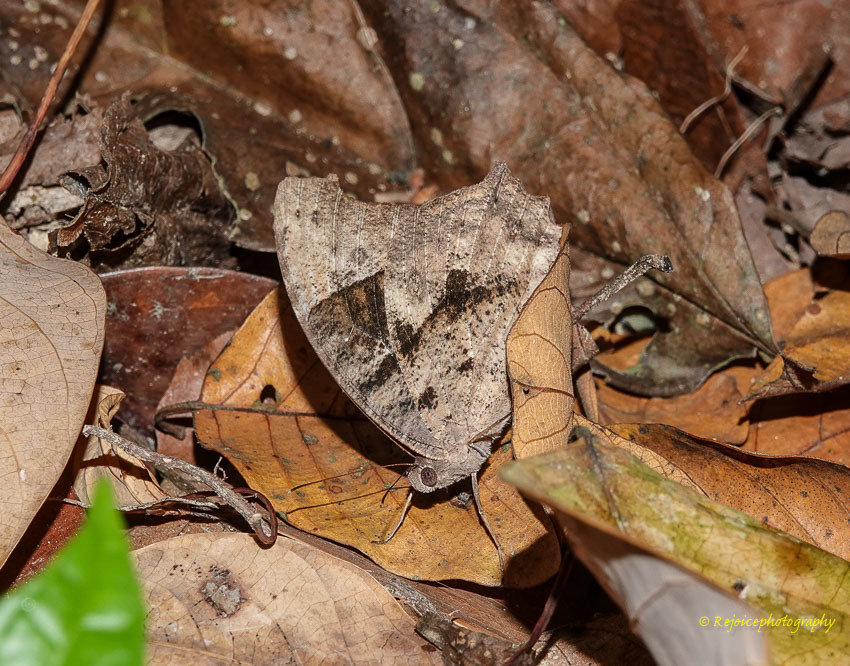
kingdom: Animalia
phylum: Arthropoda
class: Insecta
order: Lepidoptera
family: Nymphalidae
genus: Melanitis
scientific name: Melanitis leda
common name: Twilight brown
